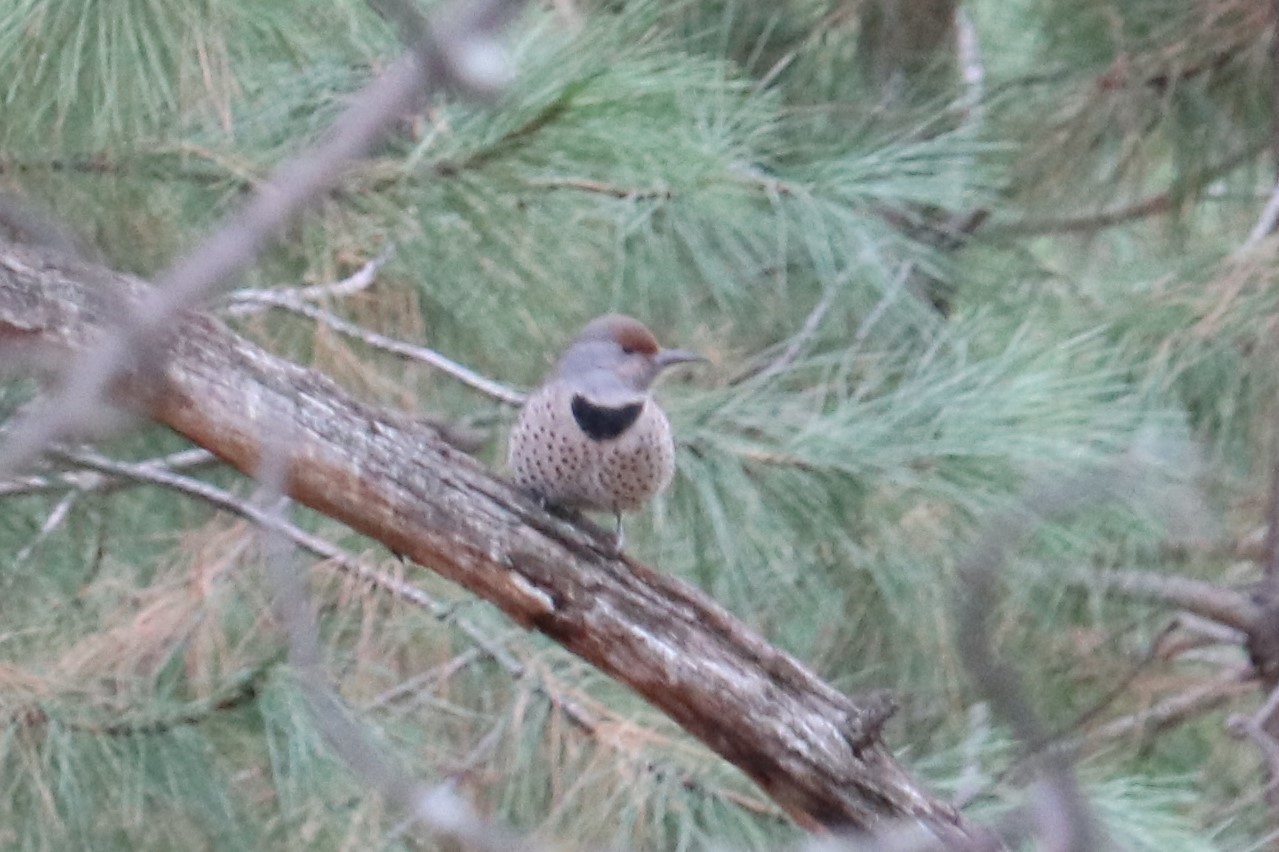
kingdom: Animalia
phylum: Chordata
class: Aves
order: Piciformes
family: Picidae
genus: Colaptes
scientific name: Colaptes auratus
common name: Northern flicker
